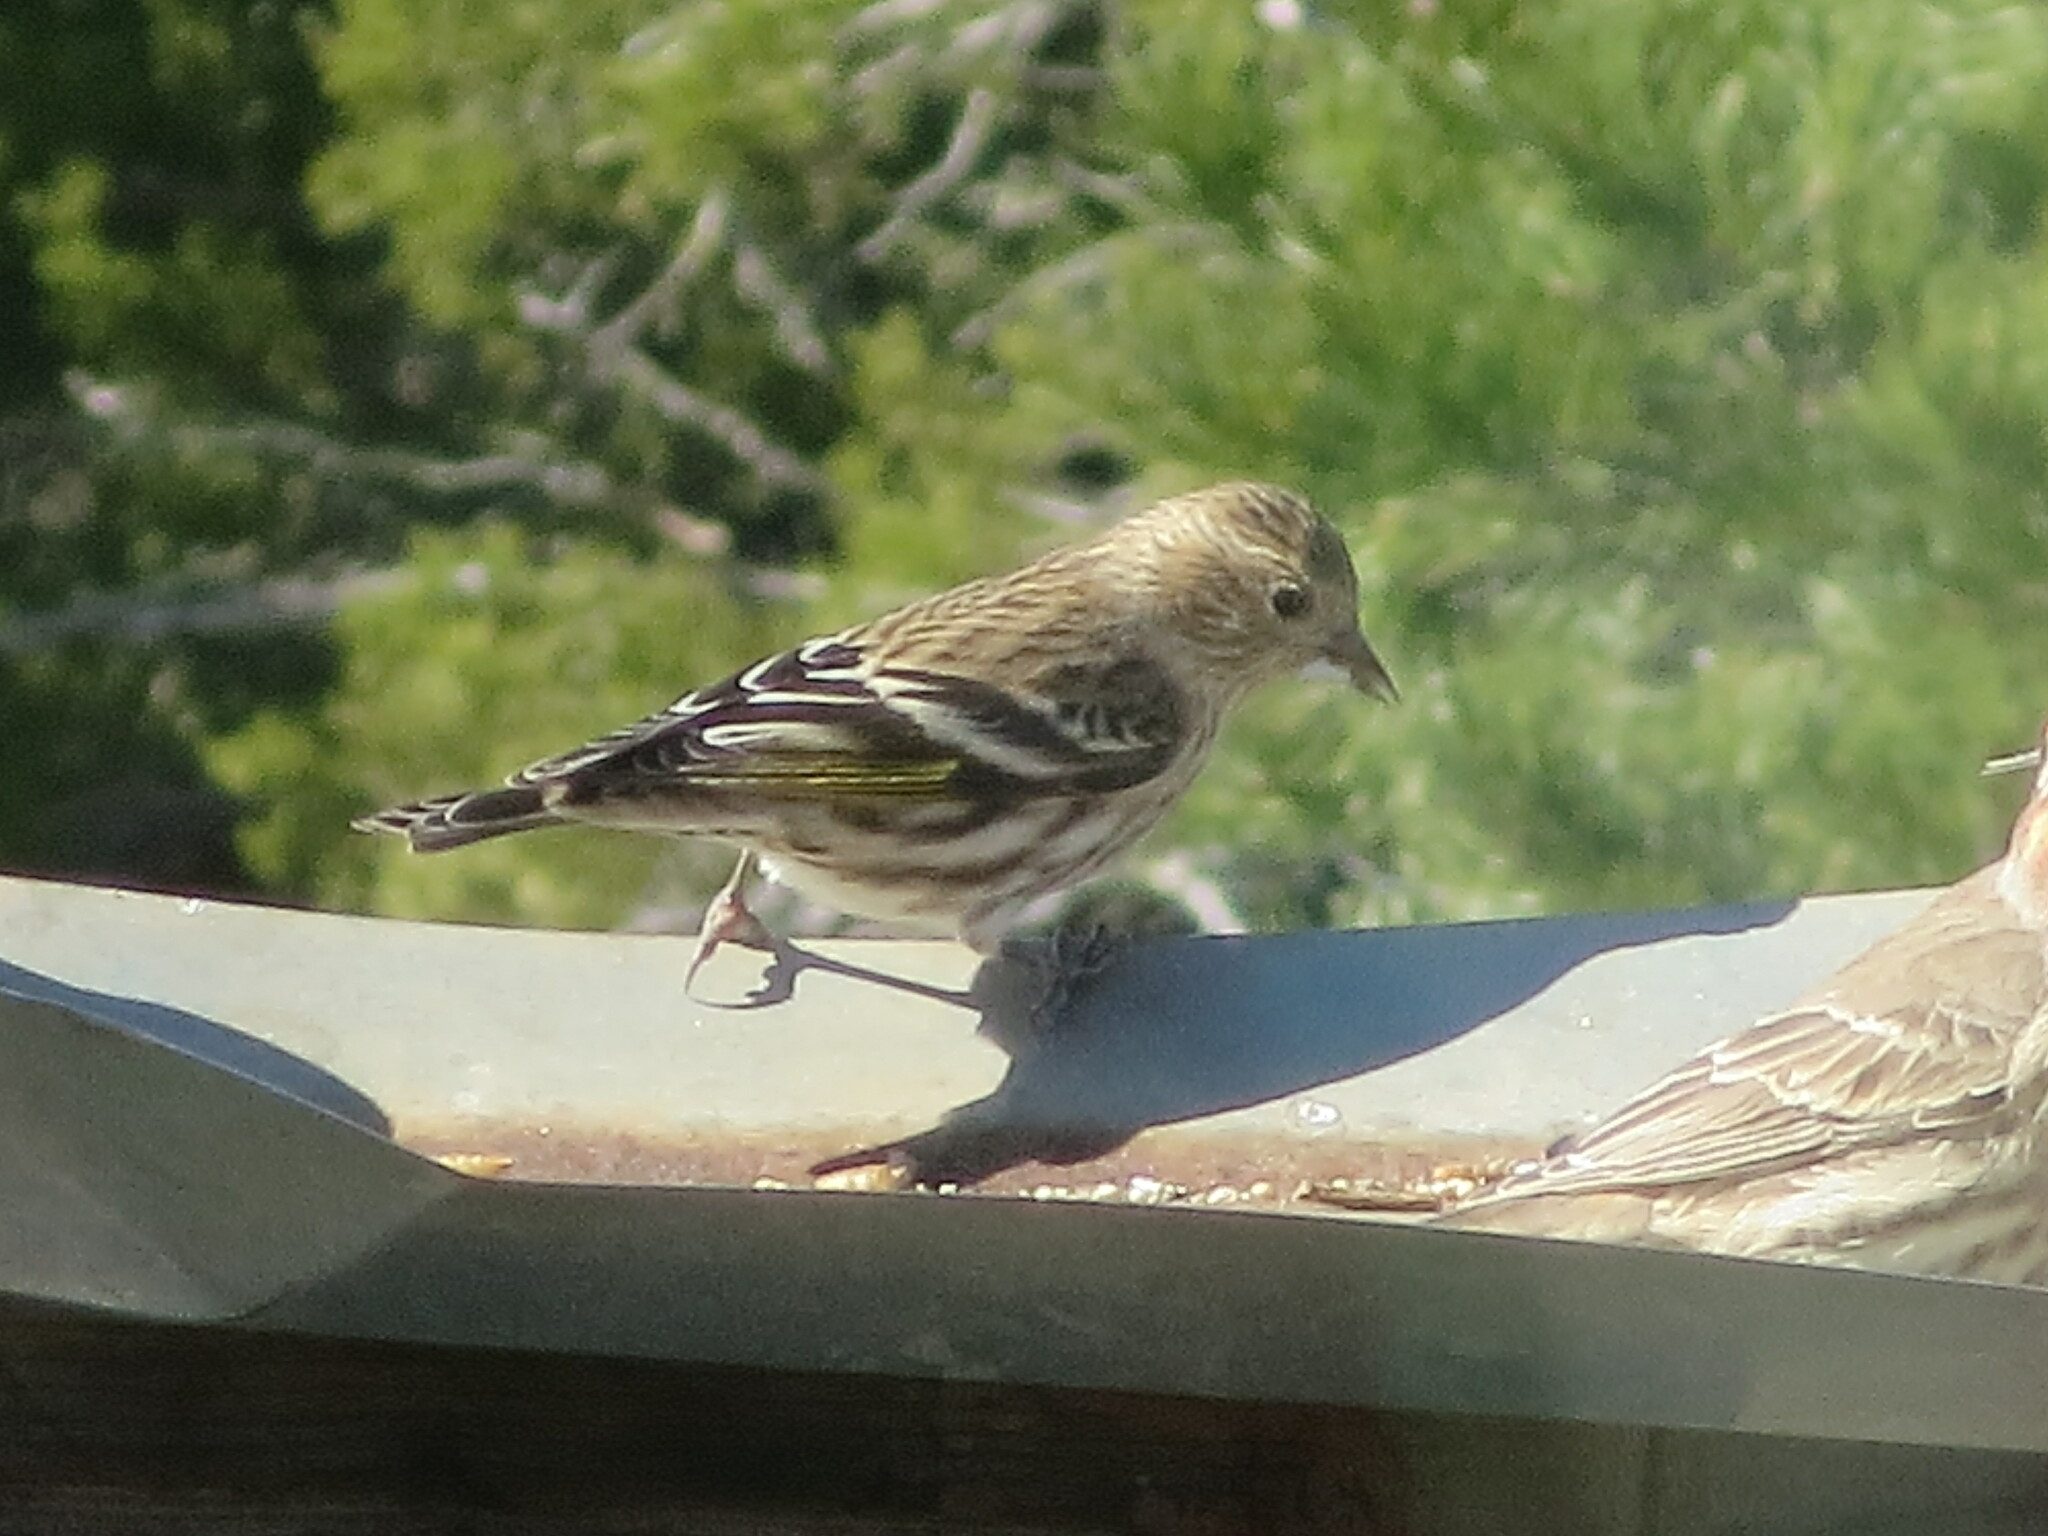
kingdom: Animalia
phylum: Chordata
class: Aves
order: Passeriformes
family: Fringillidae
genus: Spinus
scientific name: Spinus pinus
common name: Pine siskin
